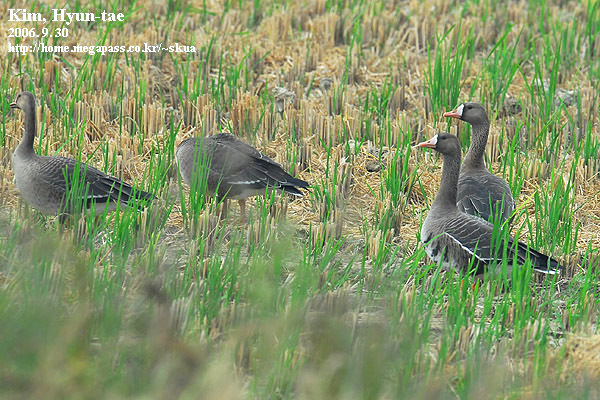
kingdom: Animalia
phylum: Chordata
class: Aves
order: Anseriformes
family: Anatidae
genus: Anser
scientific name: Anser albifrons
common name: Greater white-fronted goose
